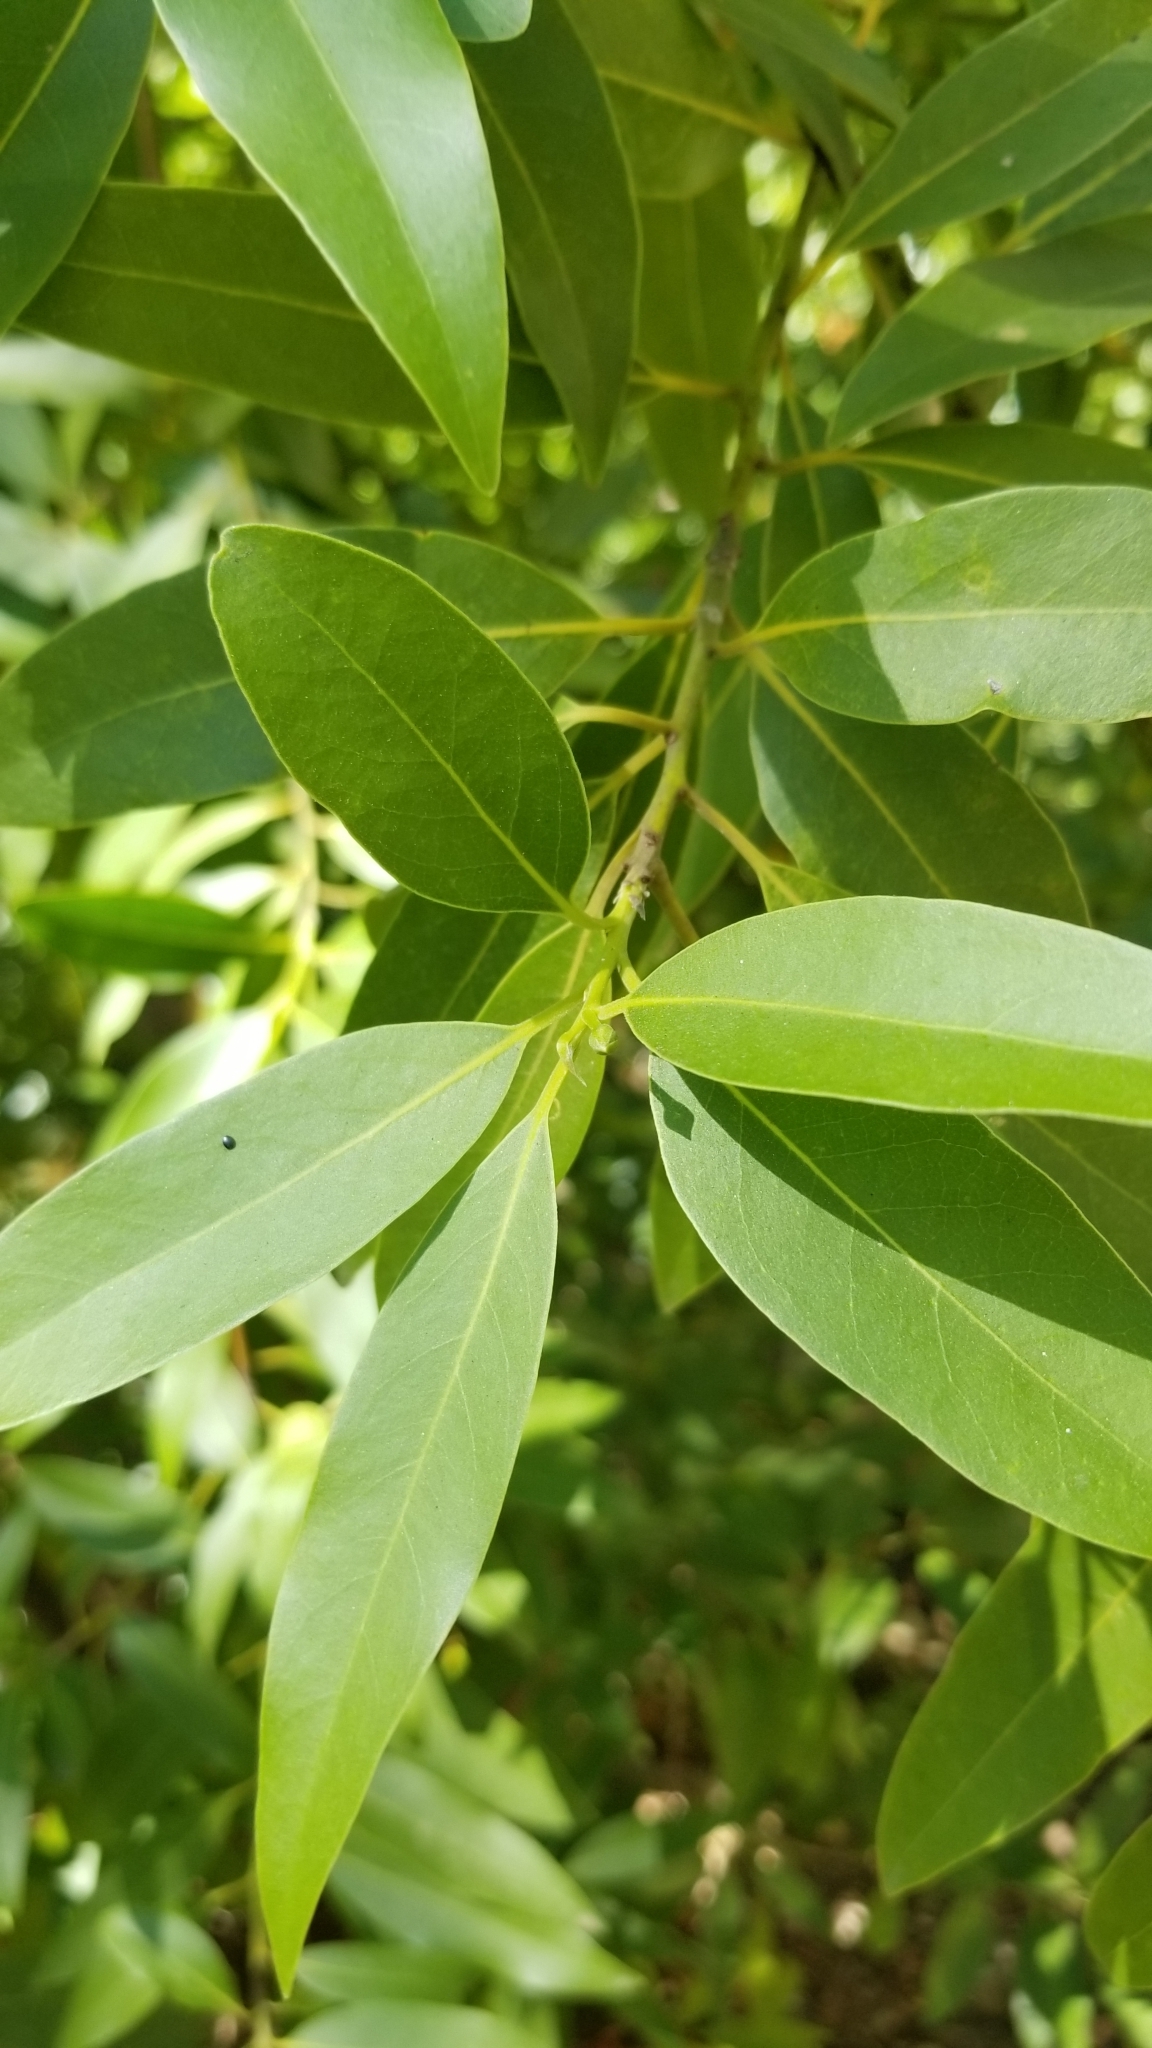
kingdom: Plantae
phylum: Tracheophyta
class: Magnoliopsida
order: Laurales
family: Lauraceae
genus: Umbellularia
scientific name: Umbellularia californica
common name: California bay
